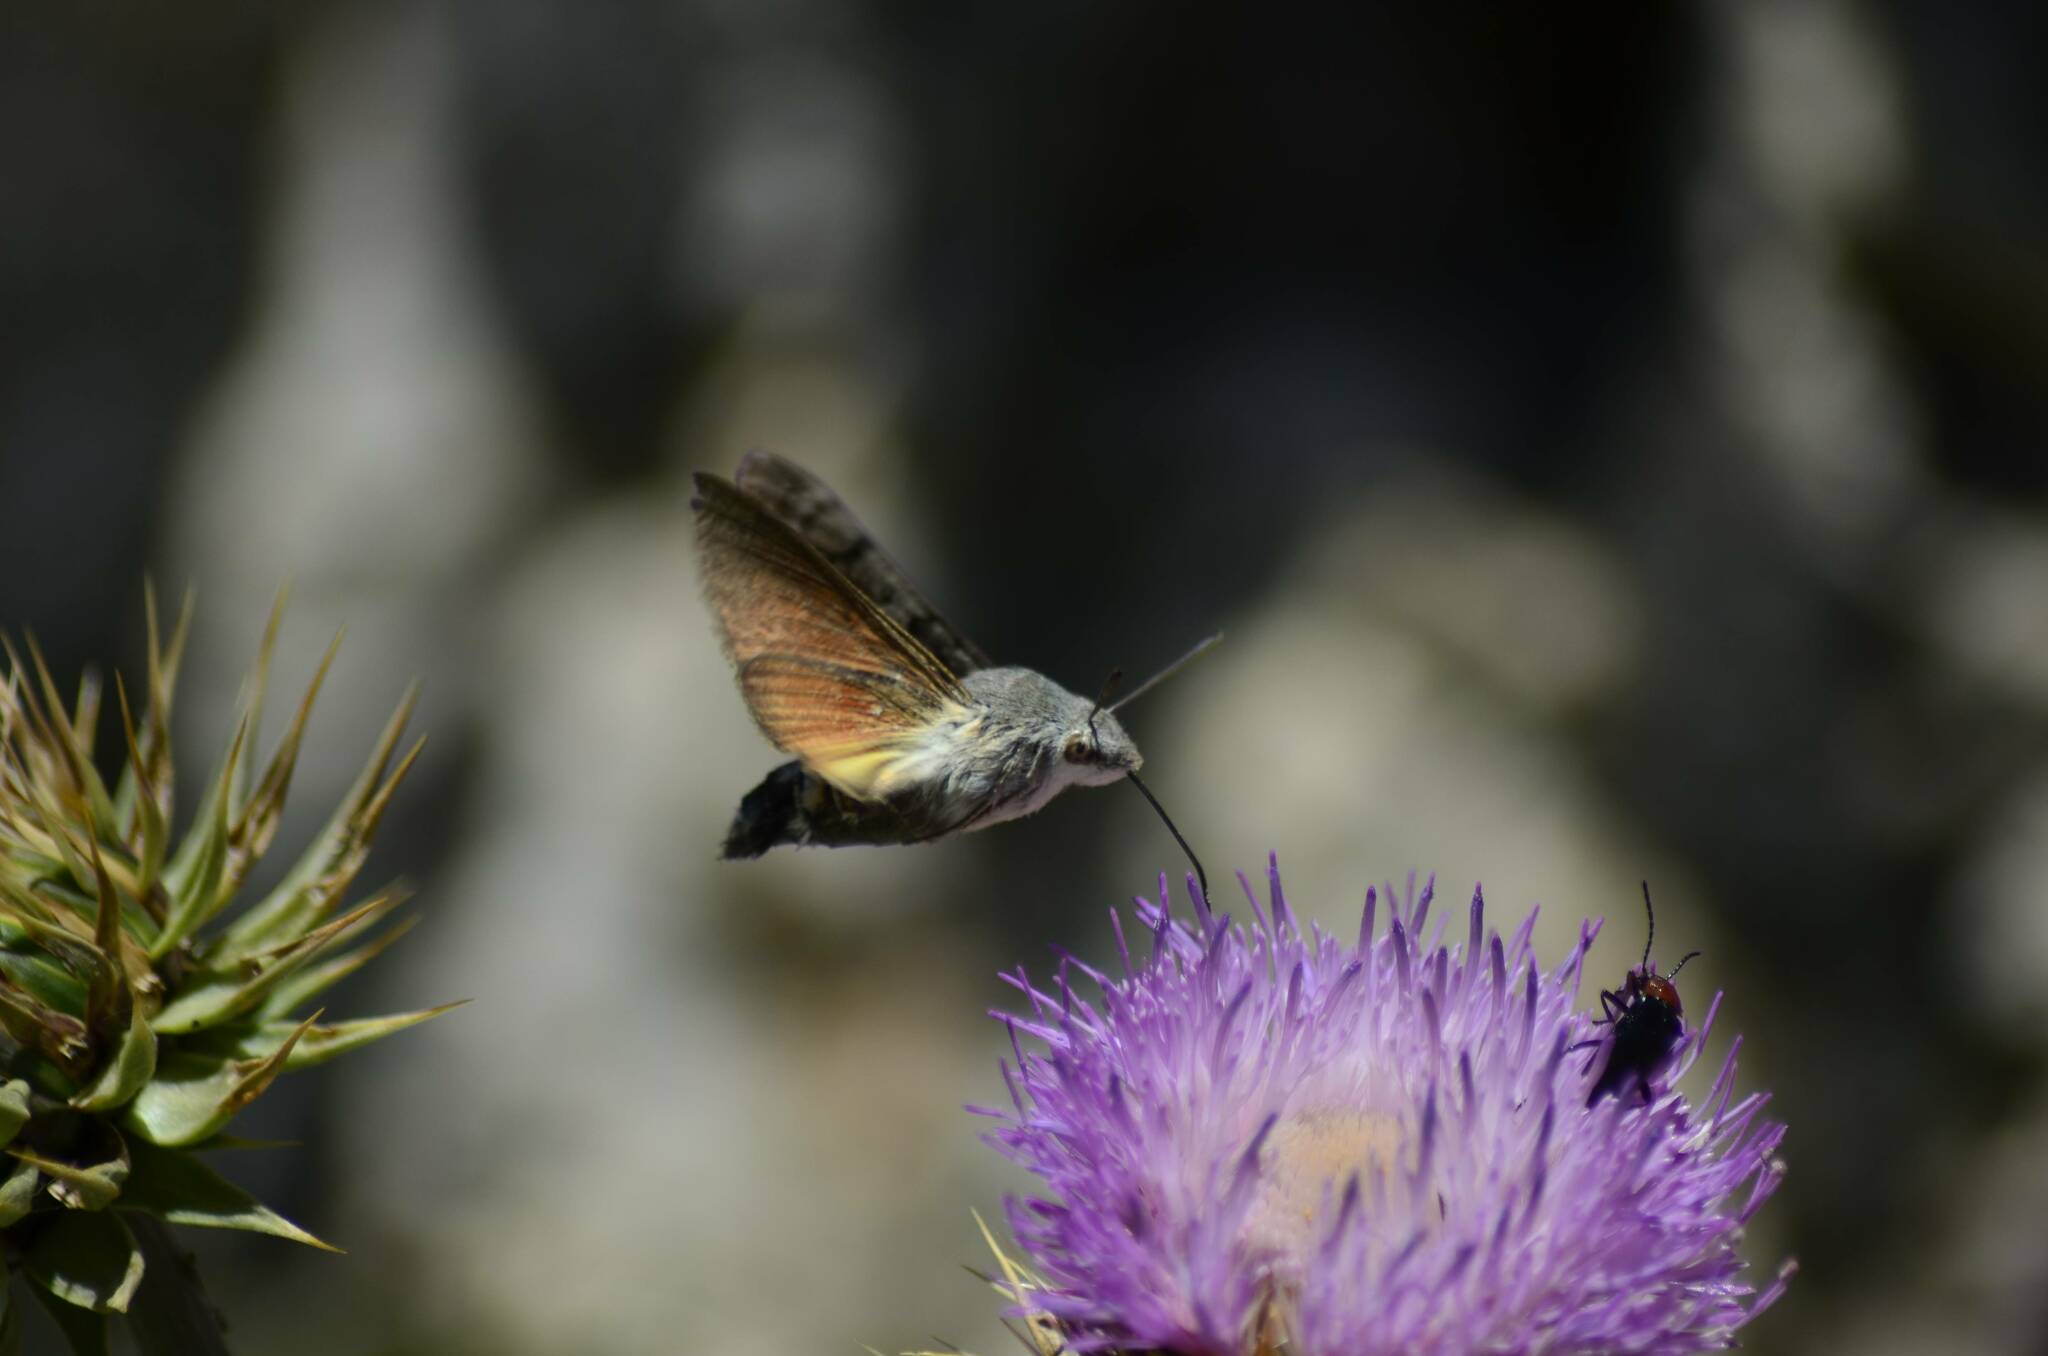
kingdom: Animalia
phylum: Arthropoda
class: Insecta
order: Lepidoptera
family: Sphingidae
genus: Macroglossum
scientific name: Macroglossum stellatarum
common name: Humming-bird hawk-moth
